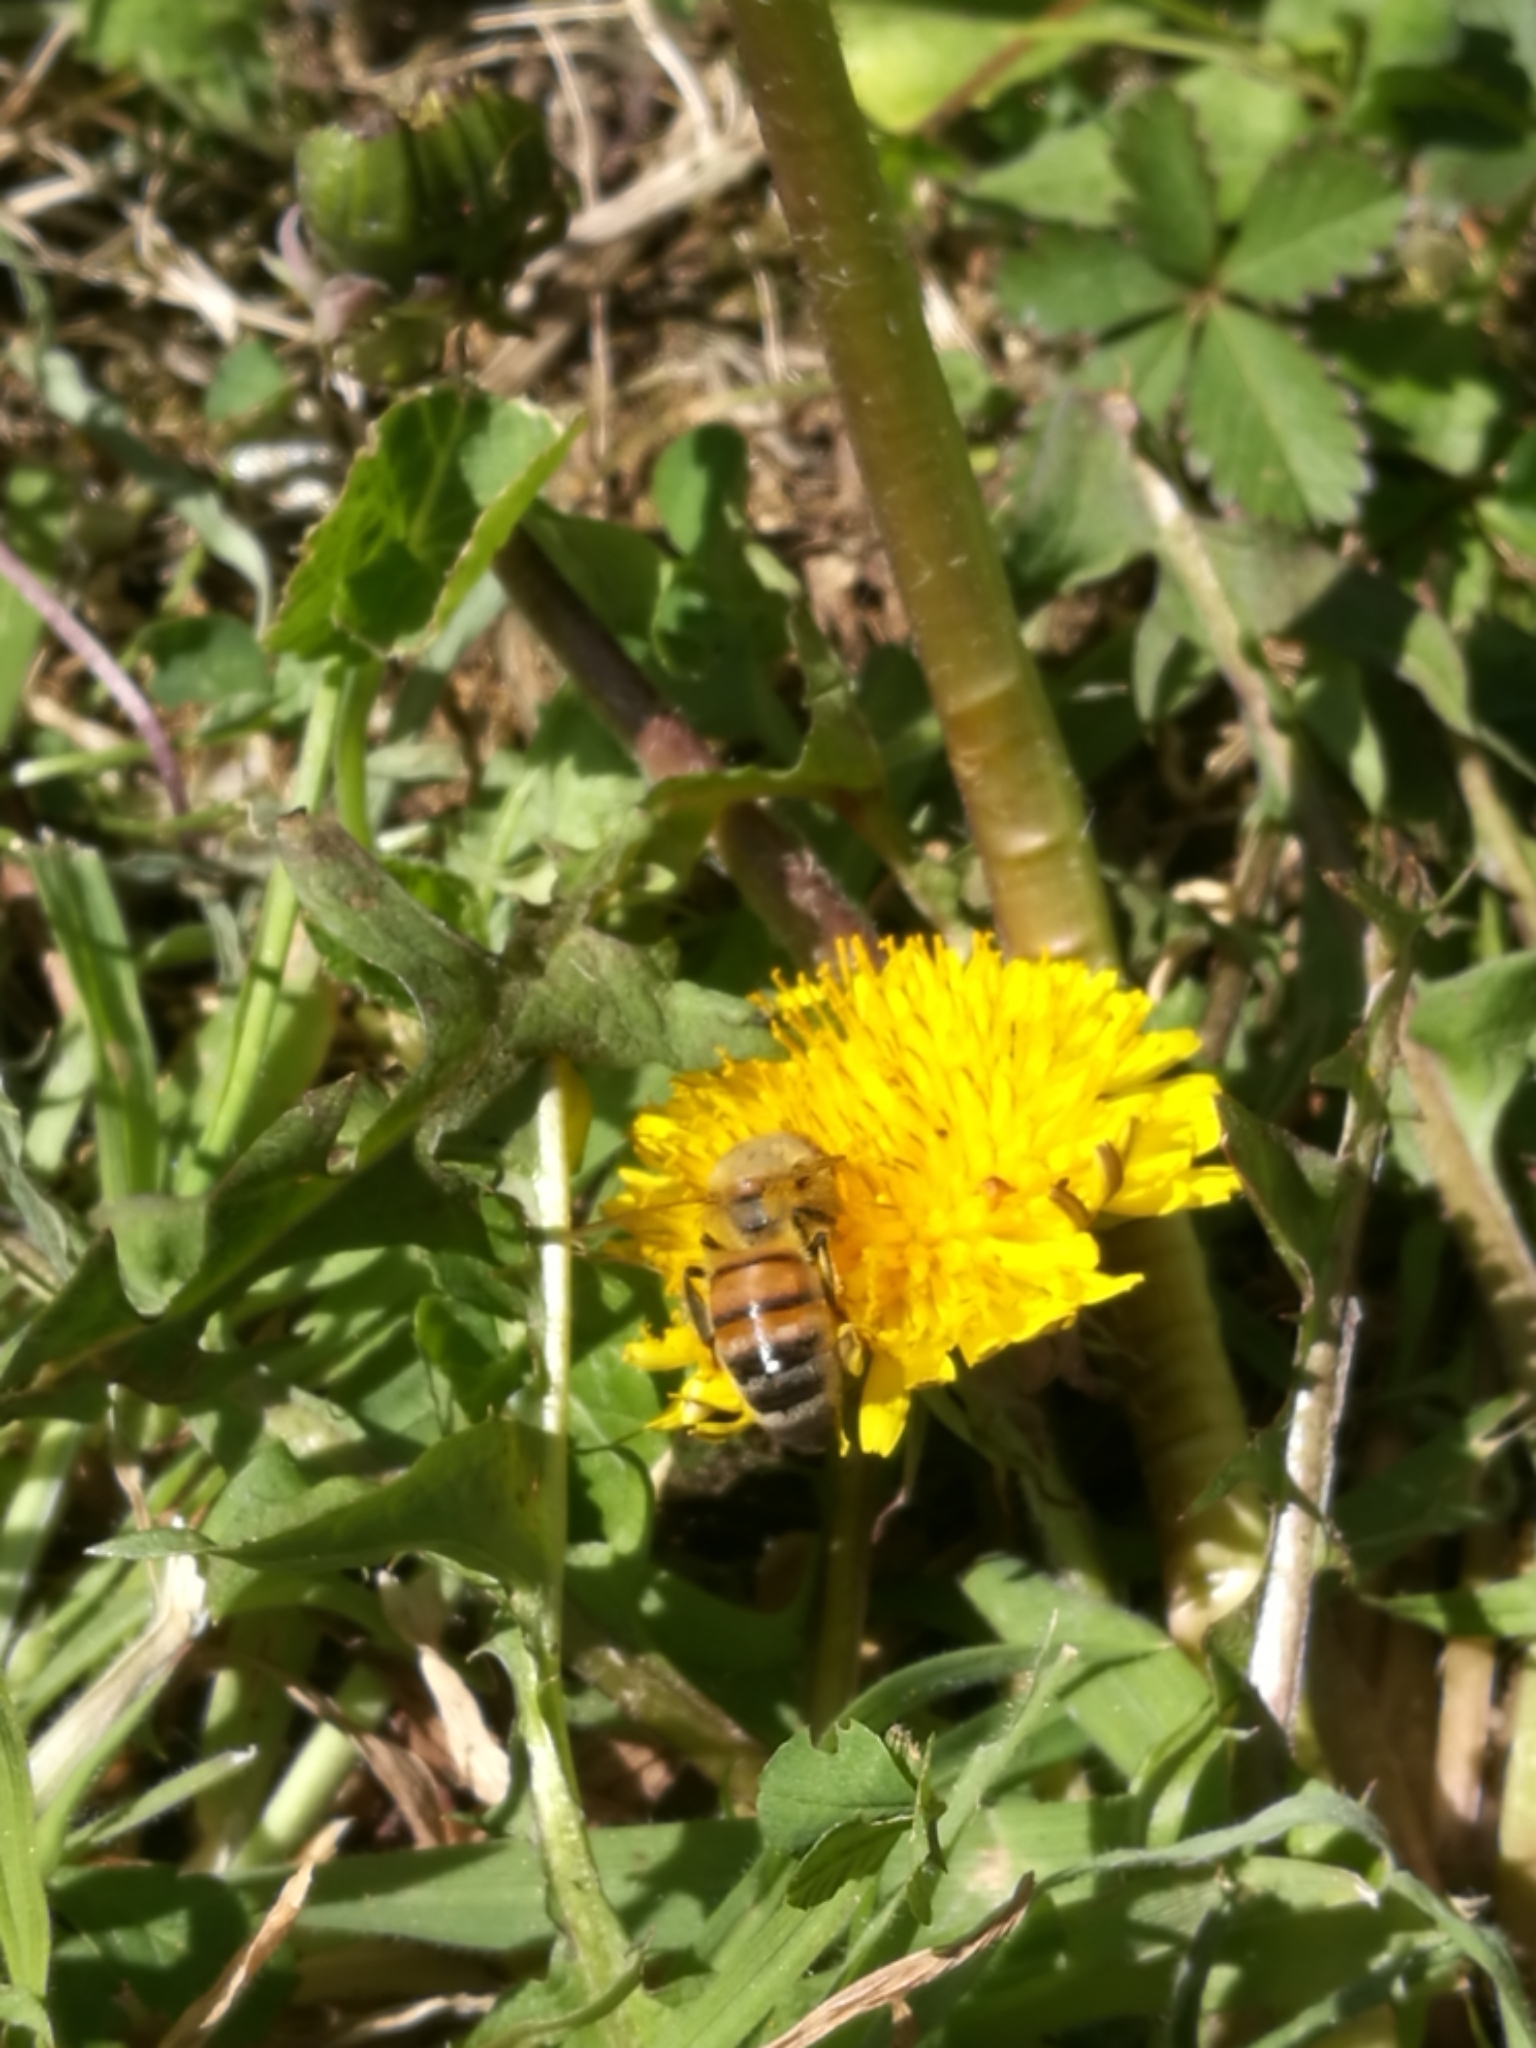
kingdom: Animalia
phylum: Arthropoda
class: Insecta
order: Hymenoptera
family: Apidae
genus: Apis
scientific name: Apis mellifera
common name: Honey bee
